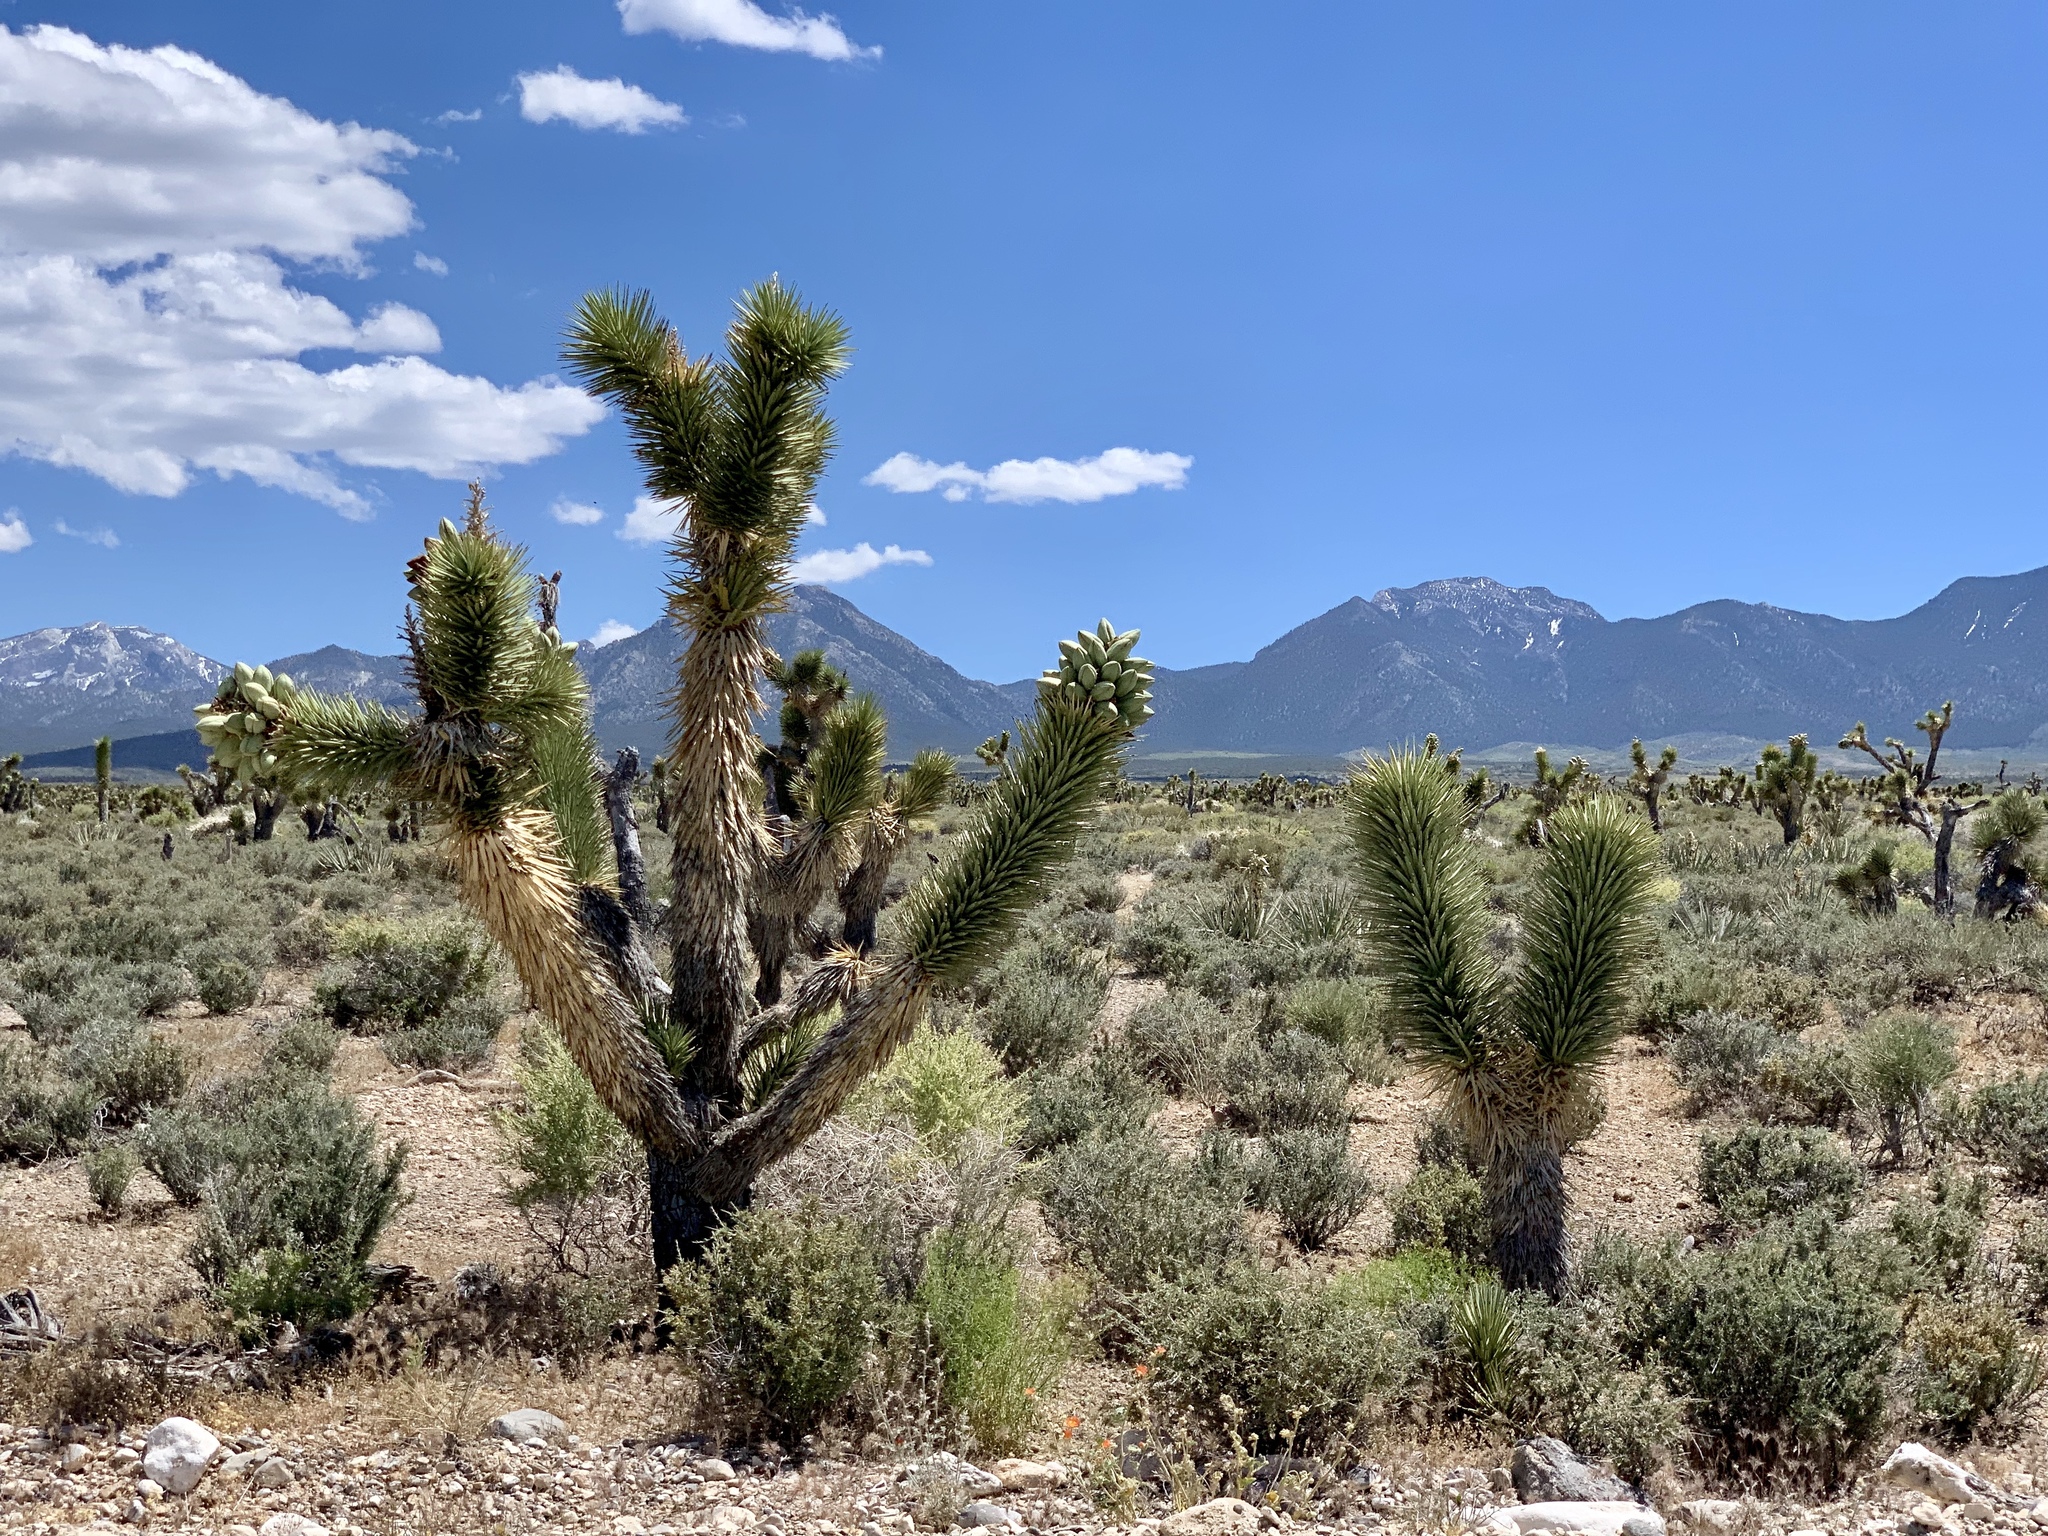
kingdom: Plantae
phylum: Tracheophyta
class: Liliopsida
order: Asparagales
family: Asparagaceae
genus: Yucca
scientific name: Yucca brevifolia
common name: Joshua tree
